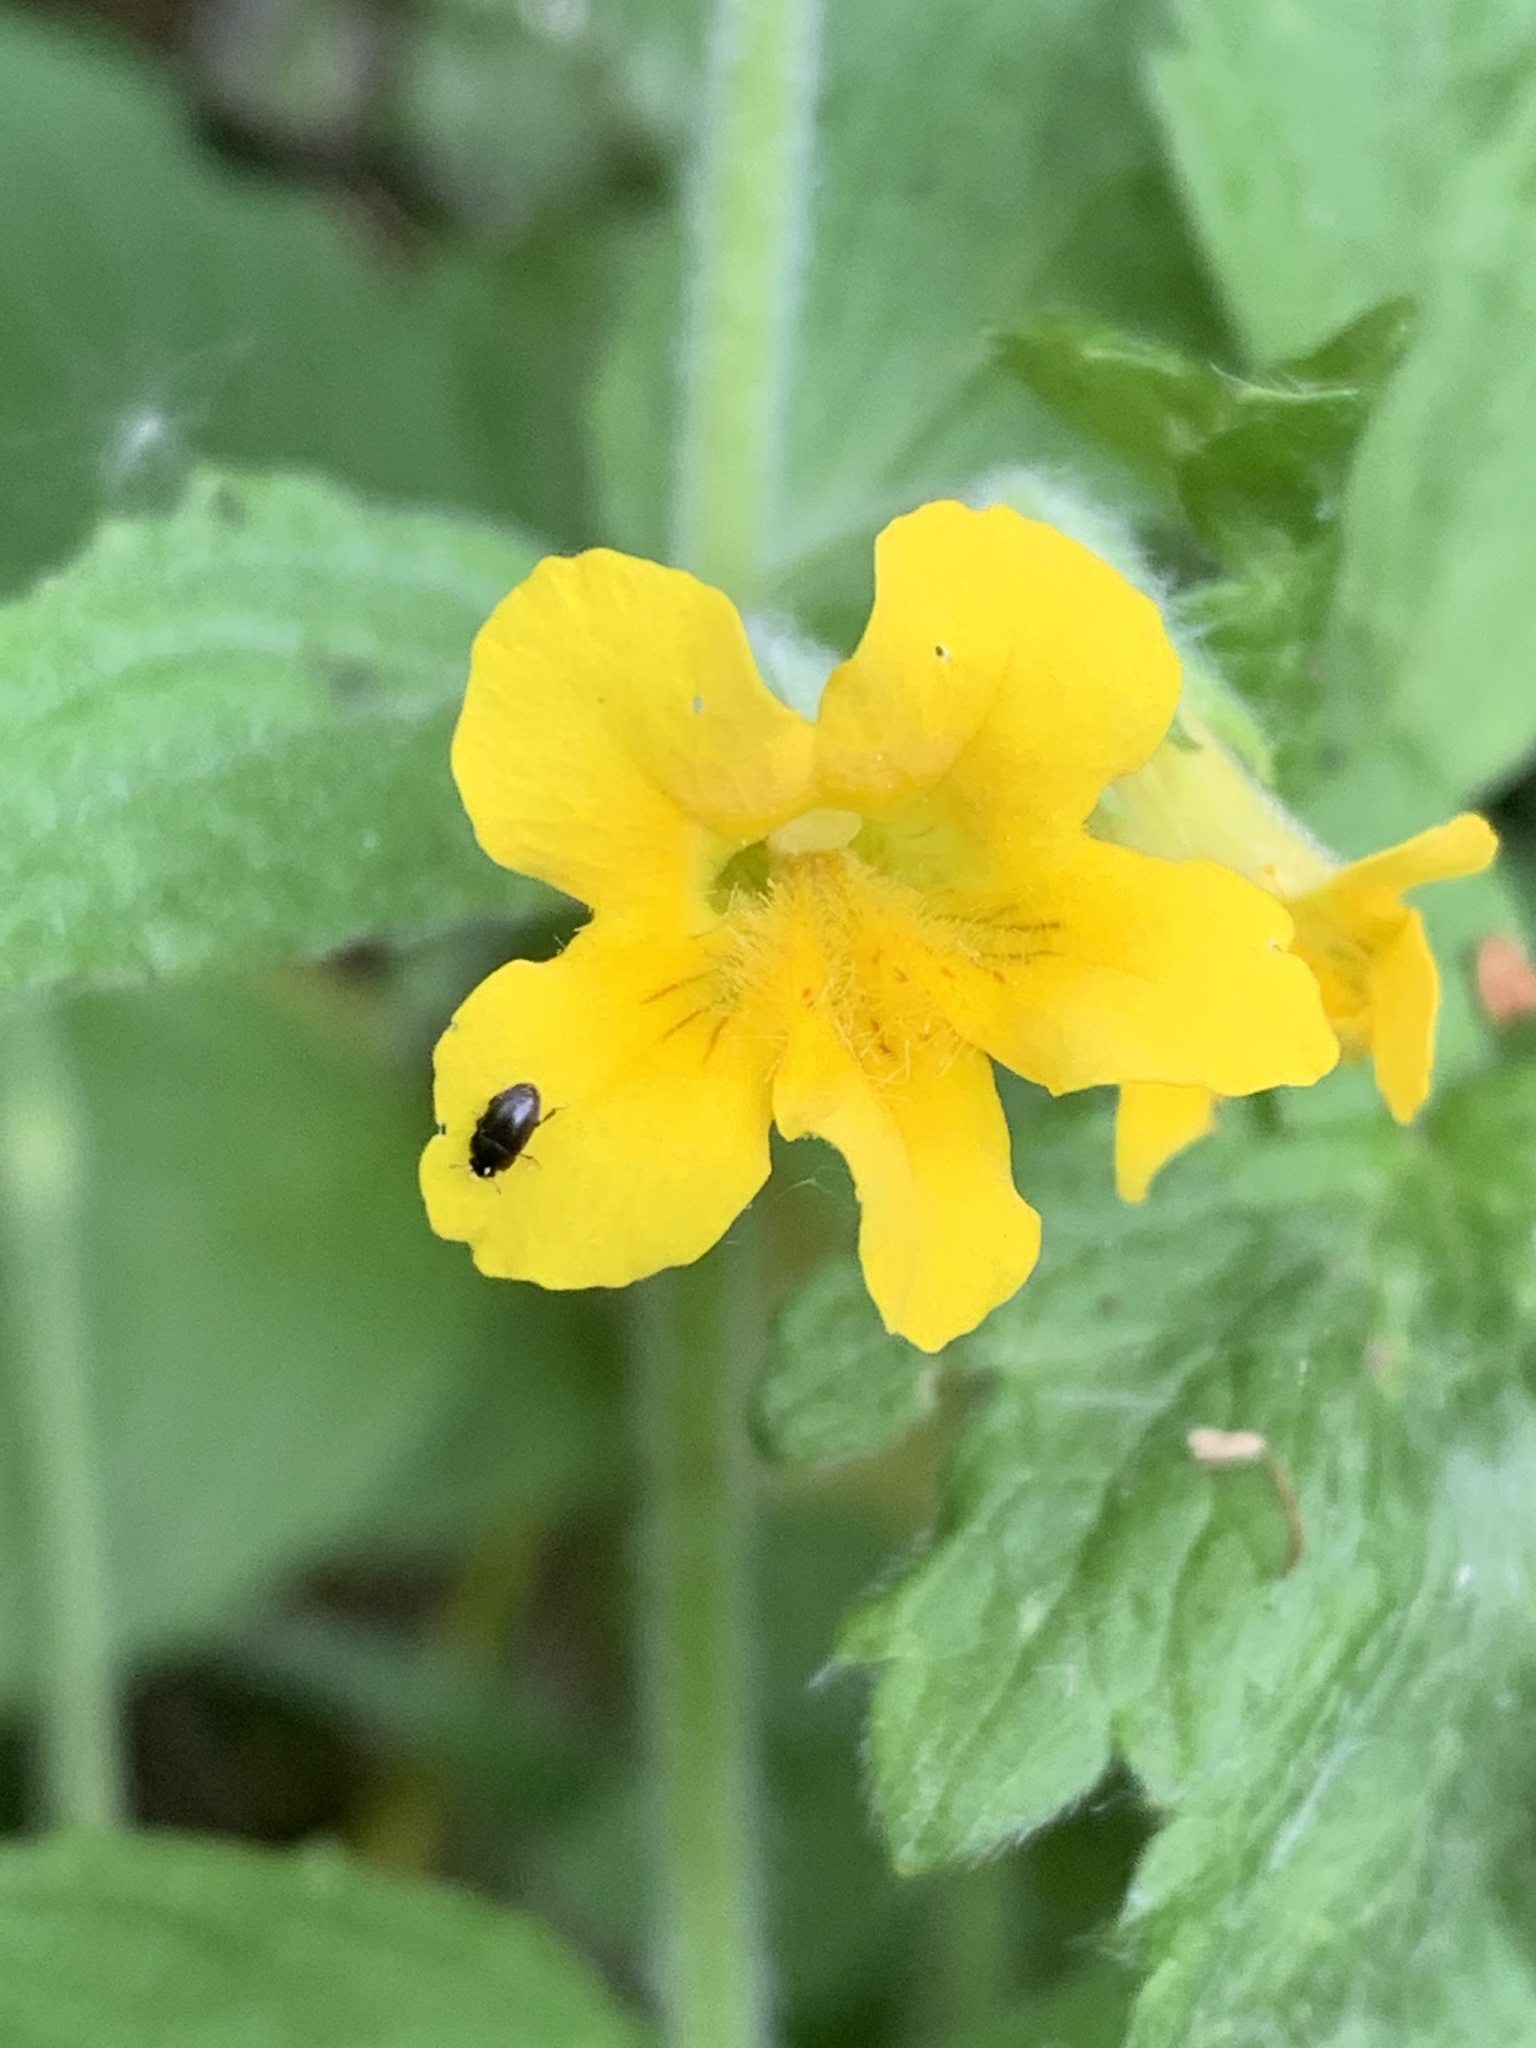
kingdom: Plantae
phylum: Tracheophyta
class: Magnoliopsida
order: Lamiales
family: Phrymaceae
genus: Erythranthe
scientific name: Erythranthe ptilota
